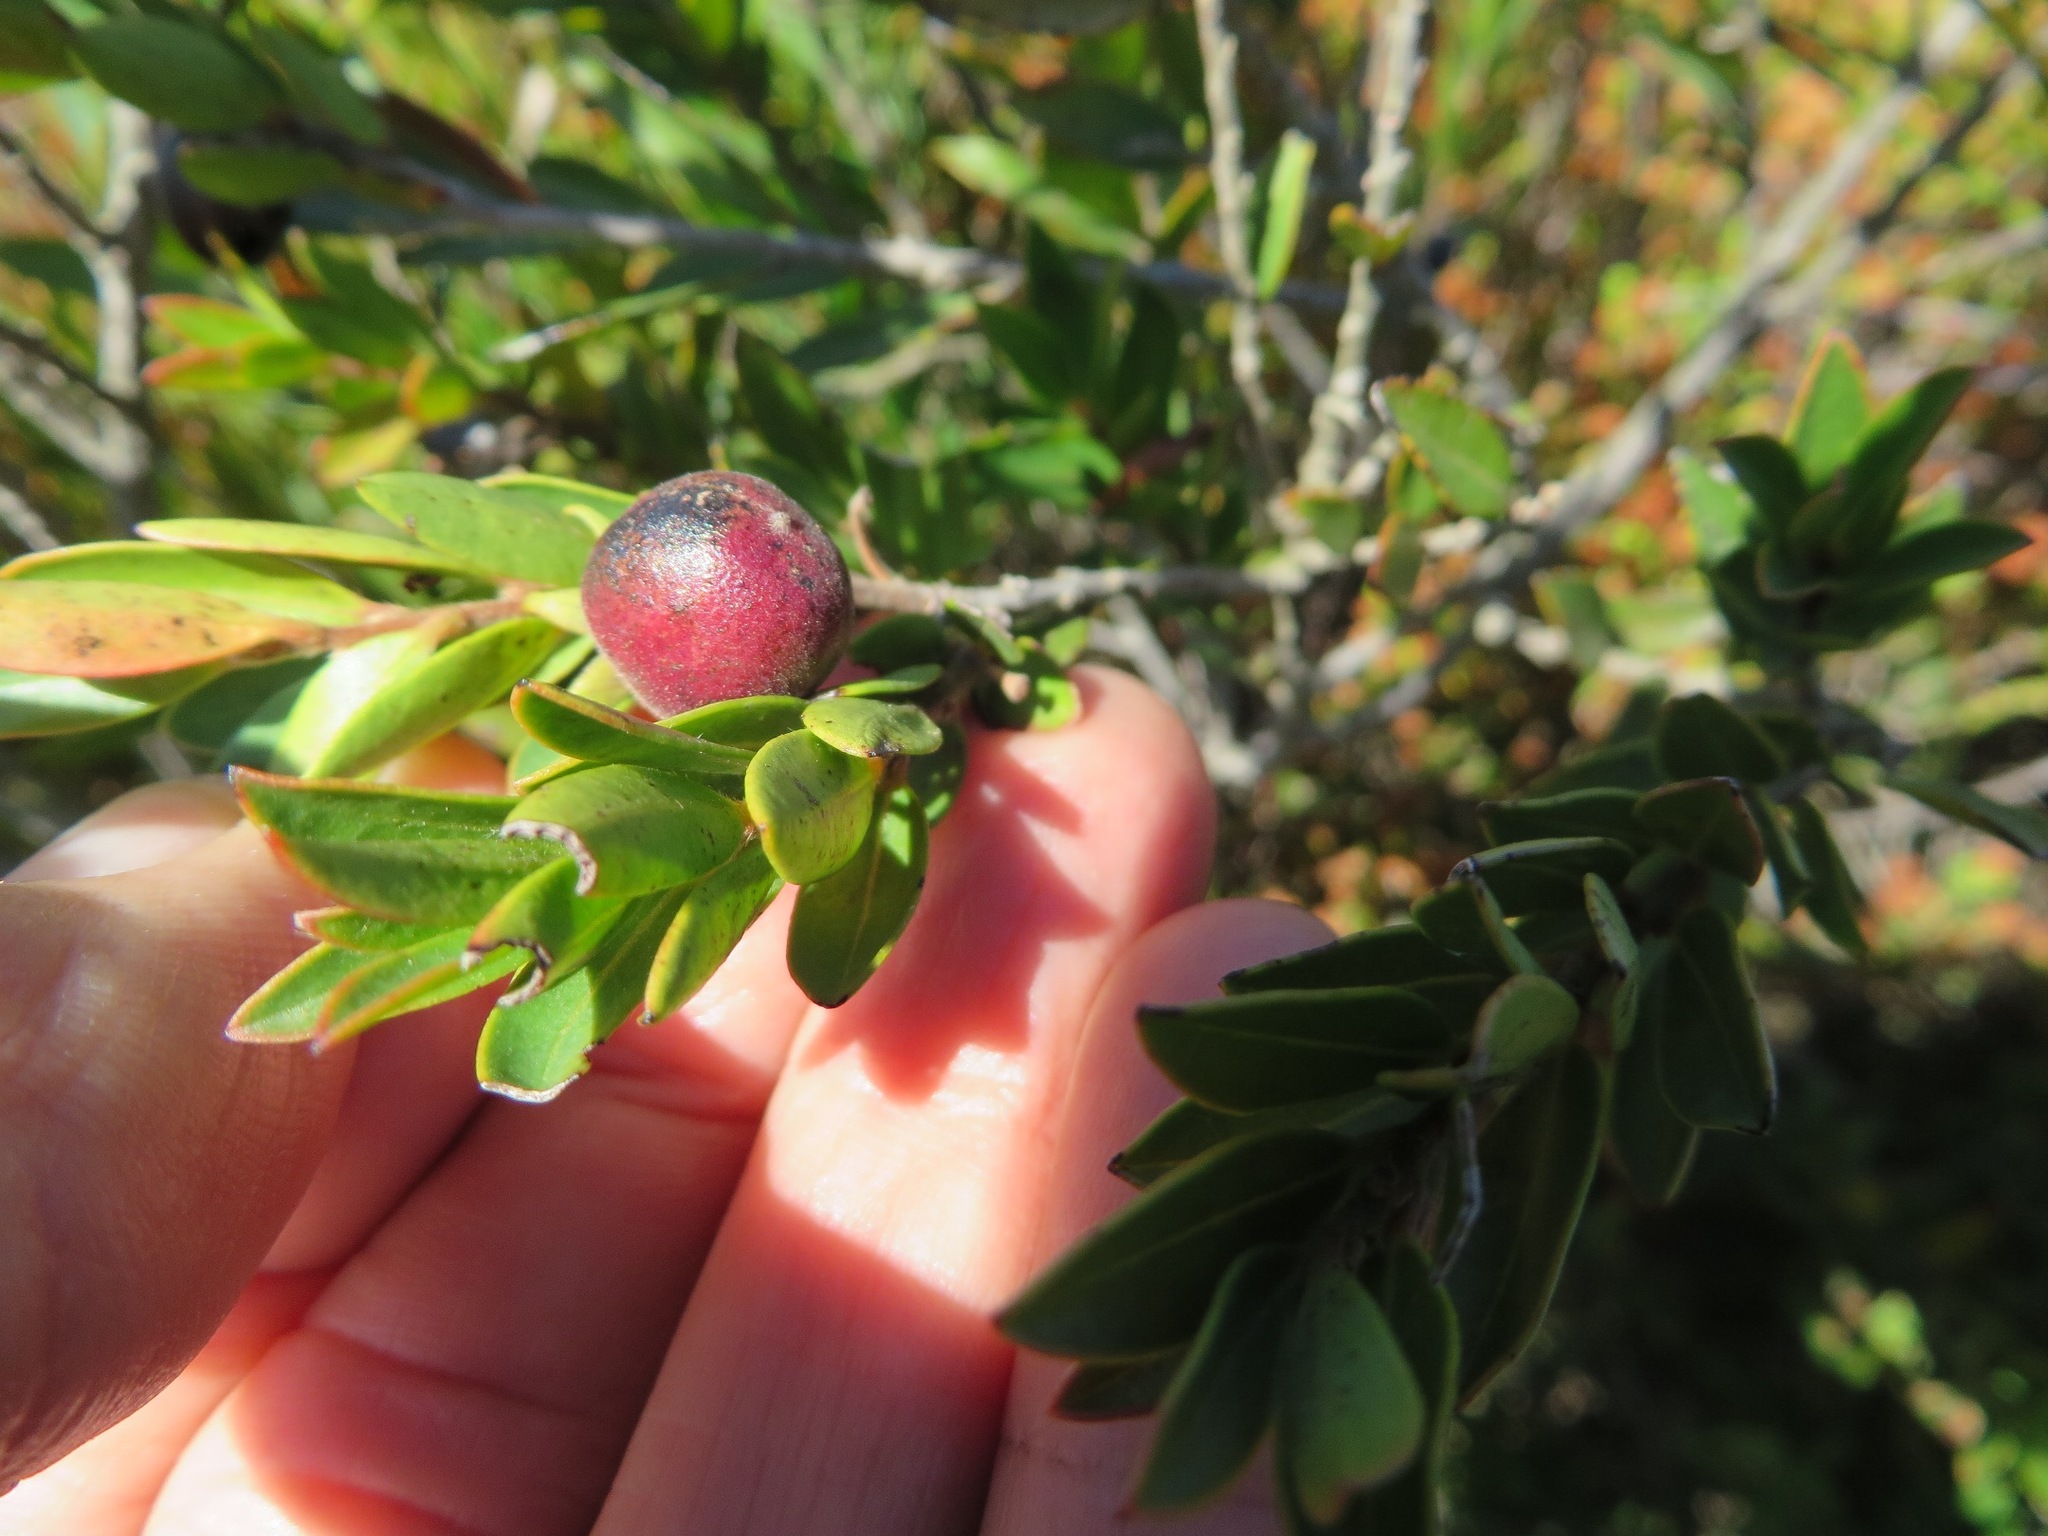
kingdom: Plantae
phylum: Tracheophyta
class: Magnoliopsida
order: Ericales
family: Ebenaceae
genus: Diospyros
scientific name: Diospyros glabra
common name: Fynbos star apple
